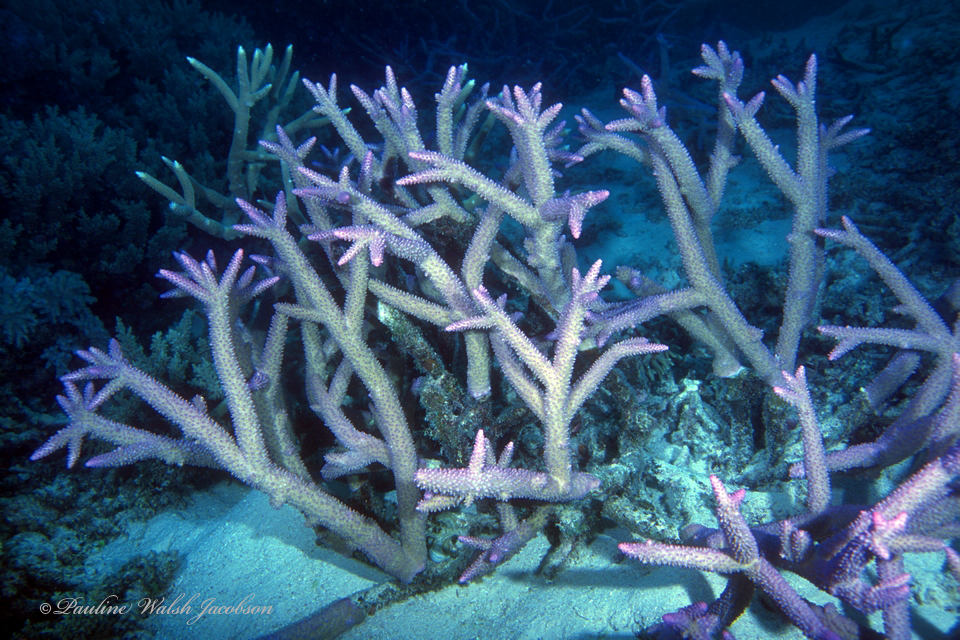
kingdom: Animalia
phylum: Cnidaria
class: Anthozoa
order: Scleractinia
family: Acroporidae
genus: Acropora
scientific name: Acropora muricata
